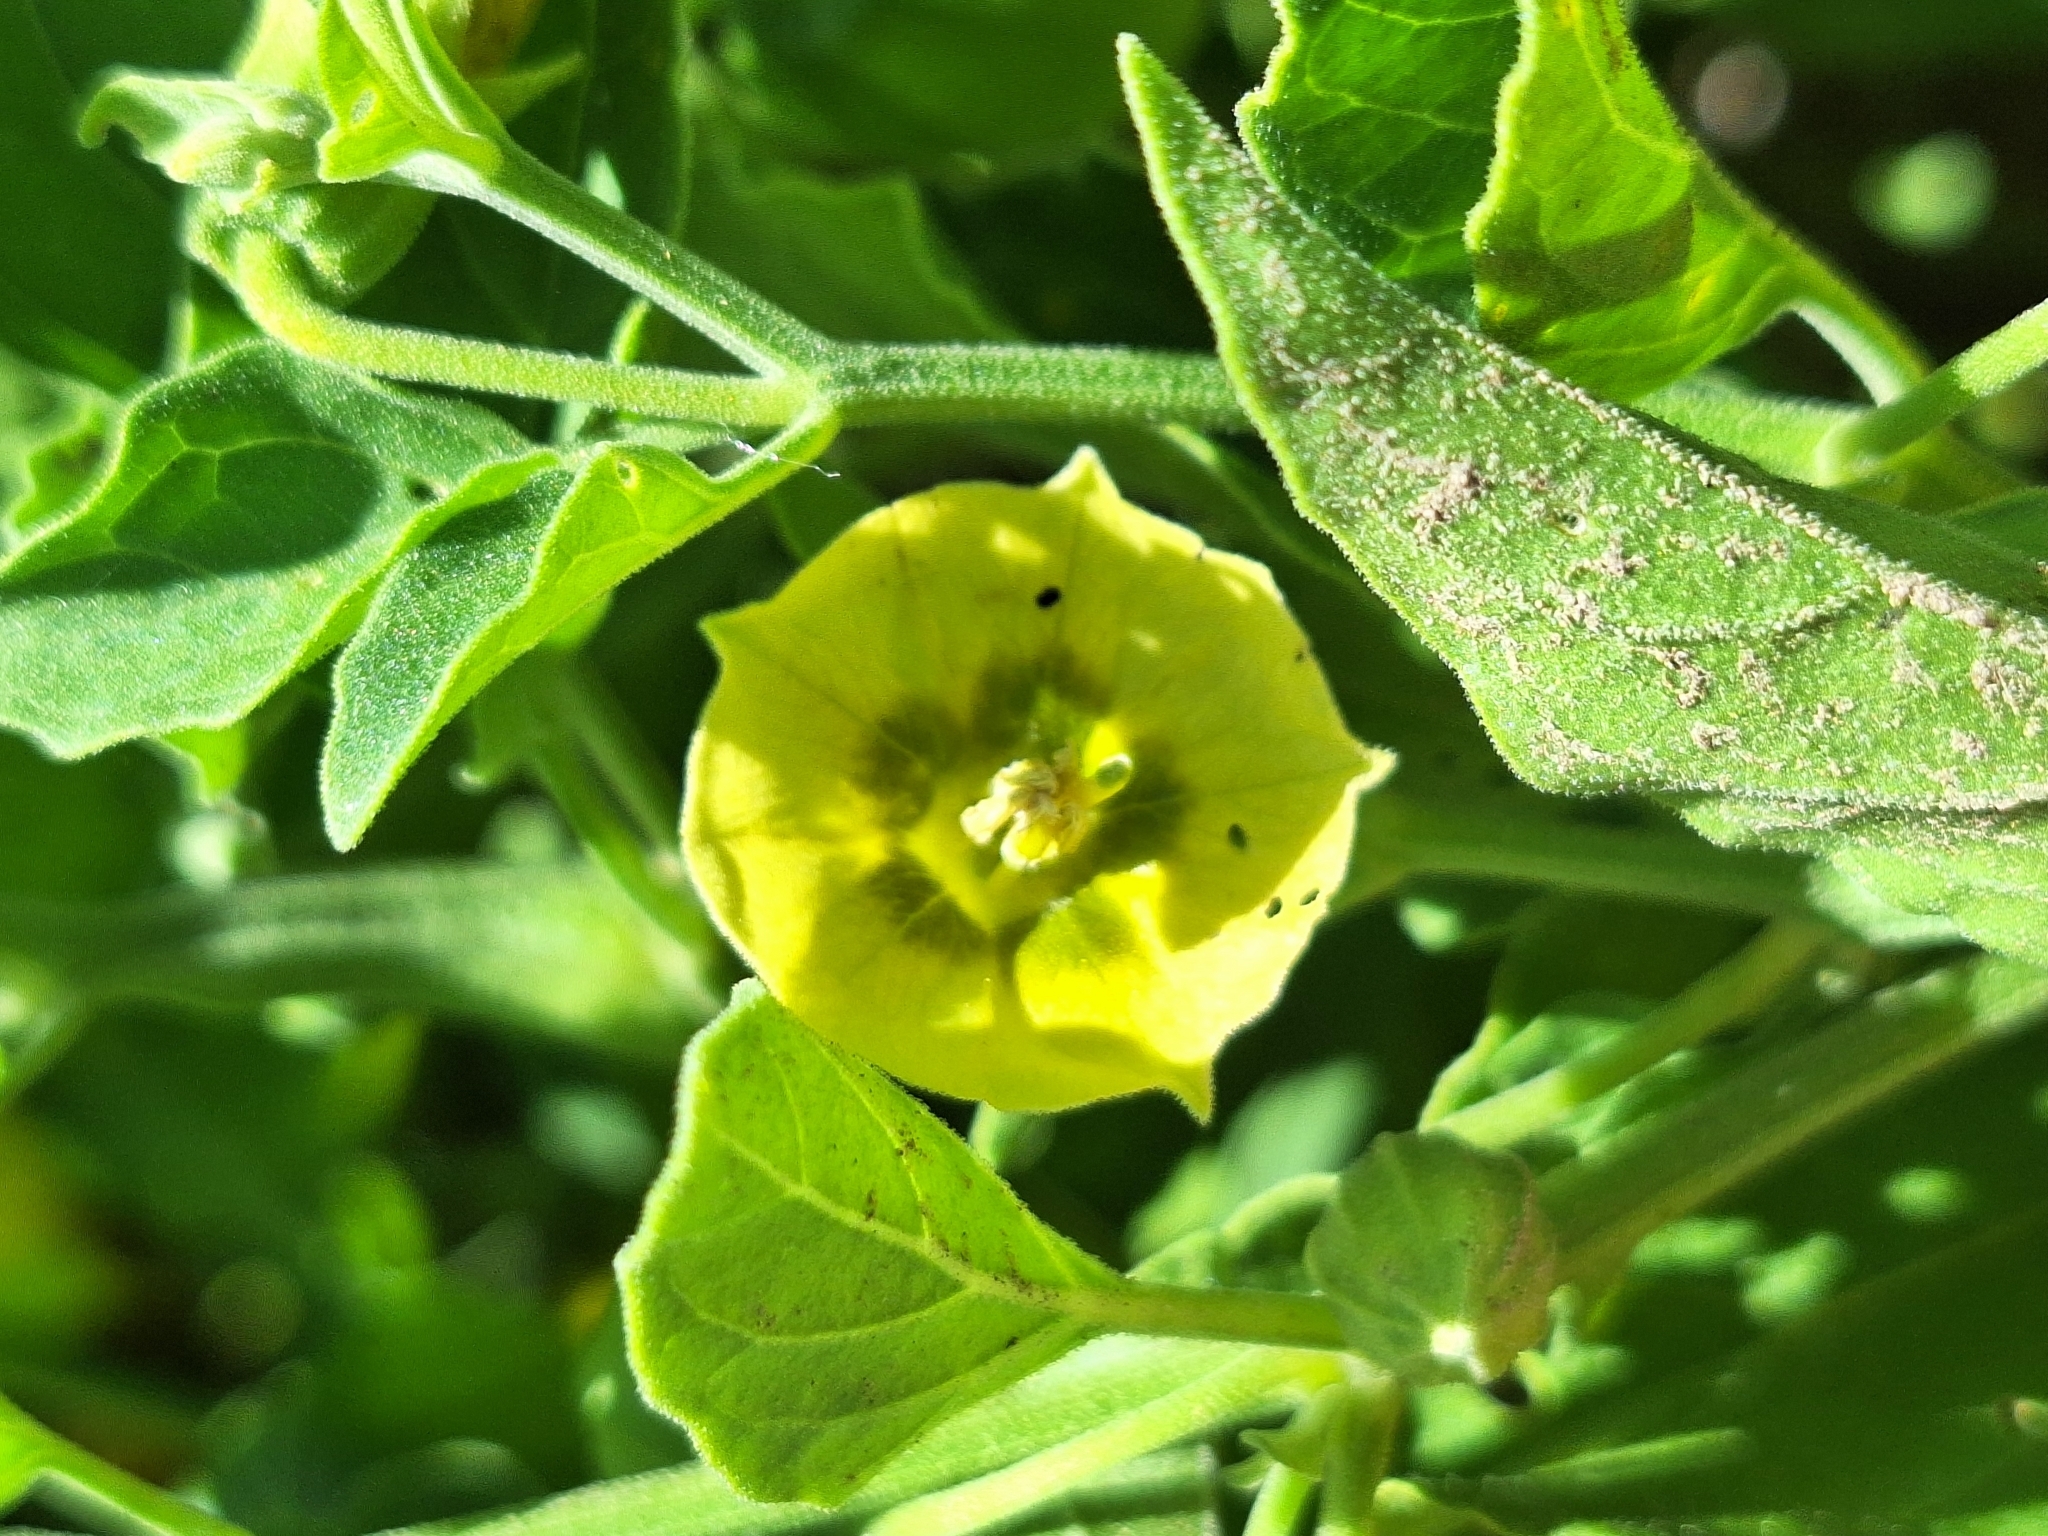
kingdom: Plantae
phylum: Tracheophyta
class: Magnoliopsida
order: Solanales
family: Solanaceae
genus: Physalis
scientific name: Physalis viscosa
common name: Stellate ground-cherry
